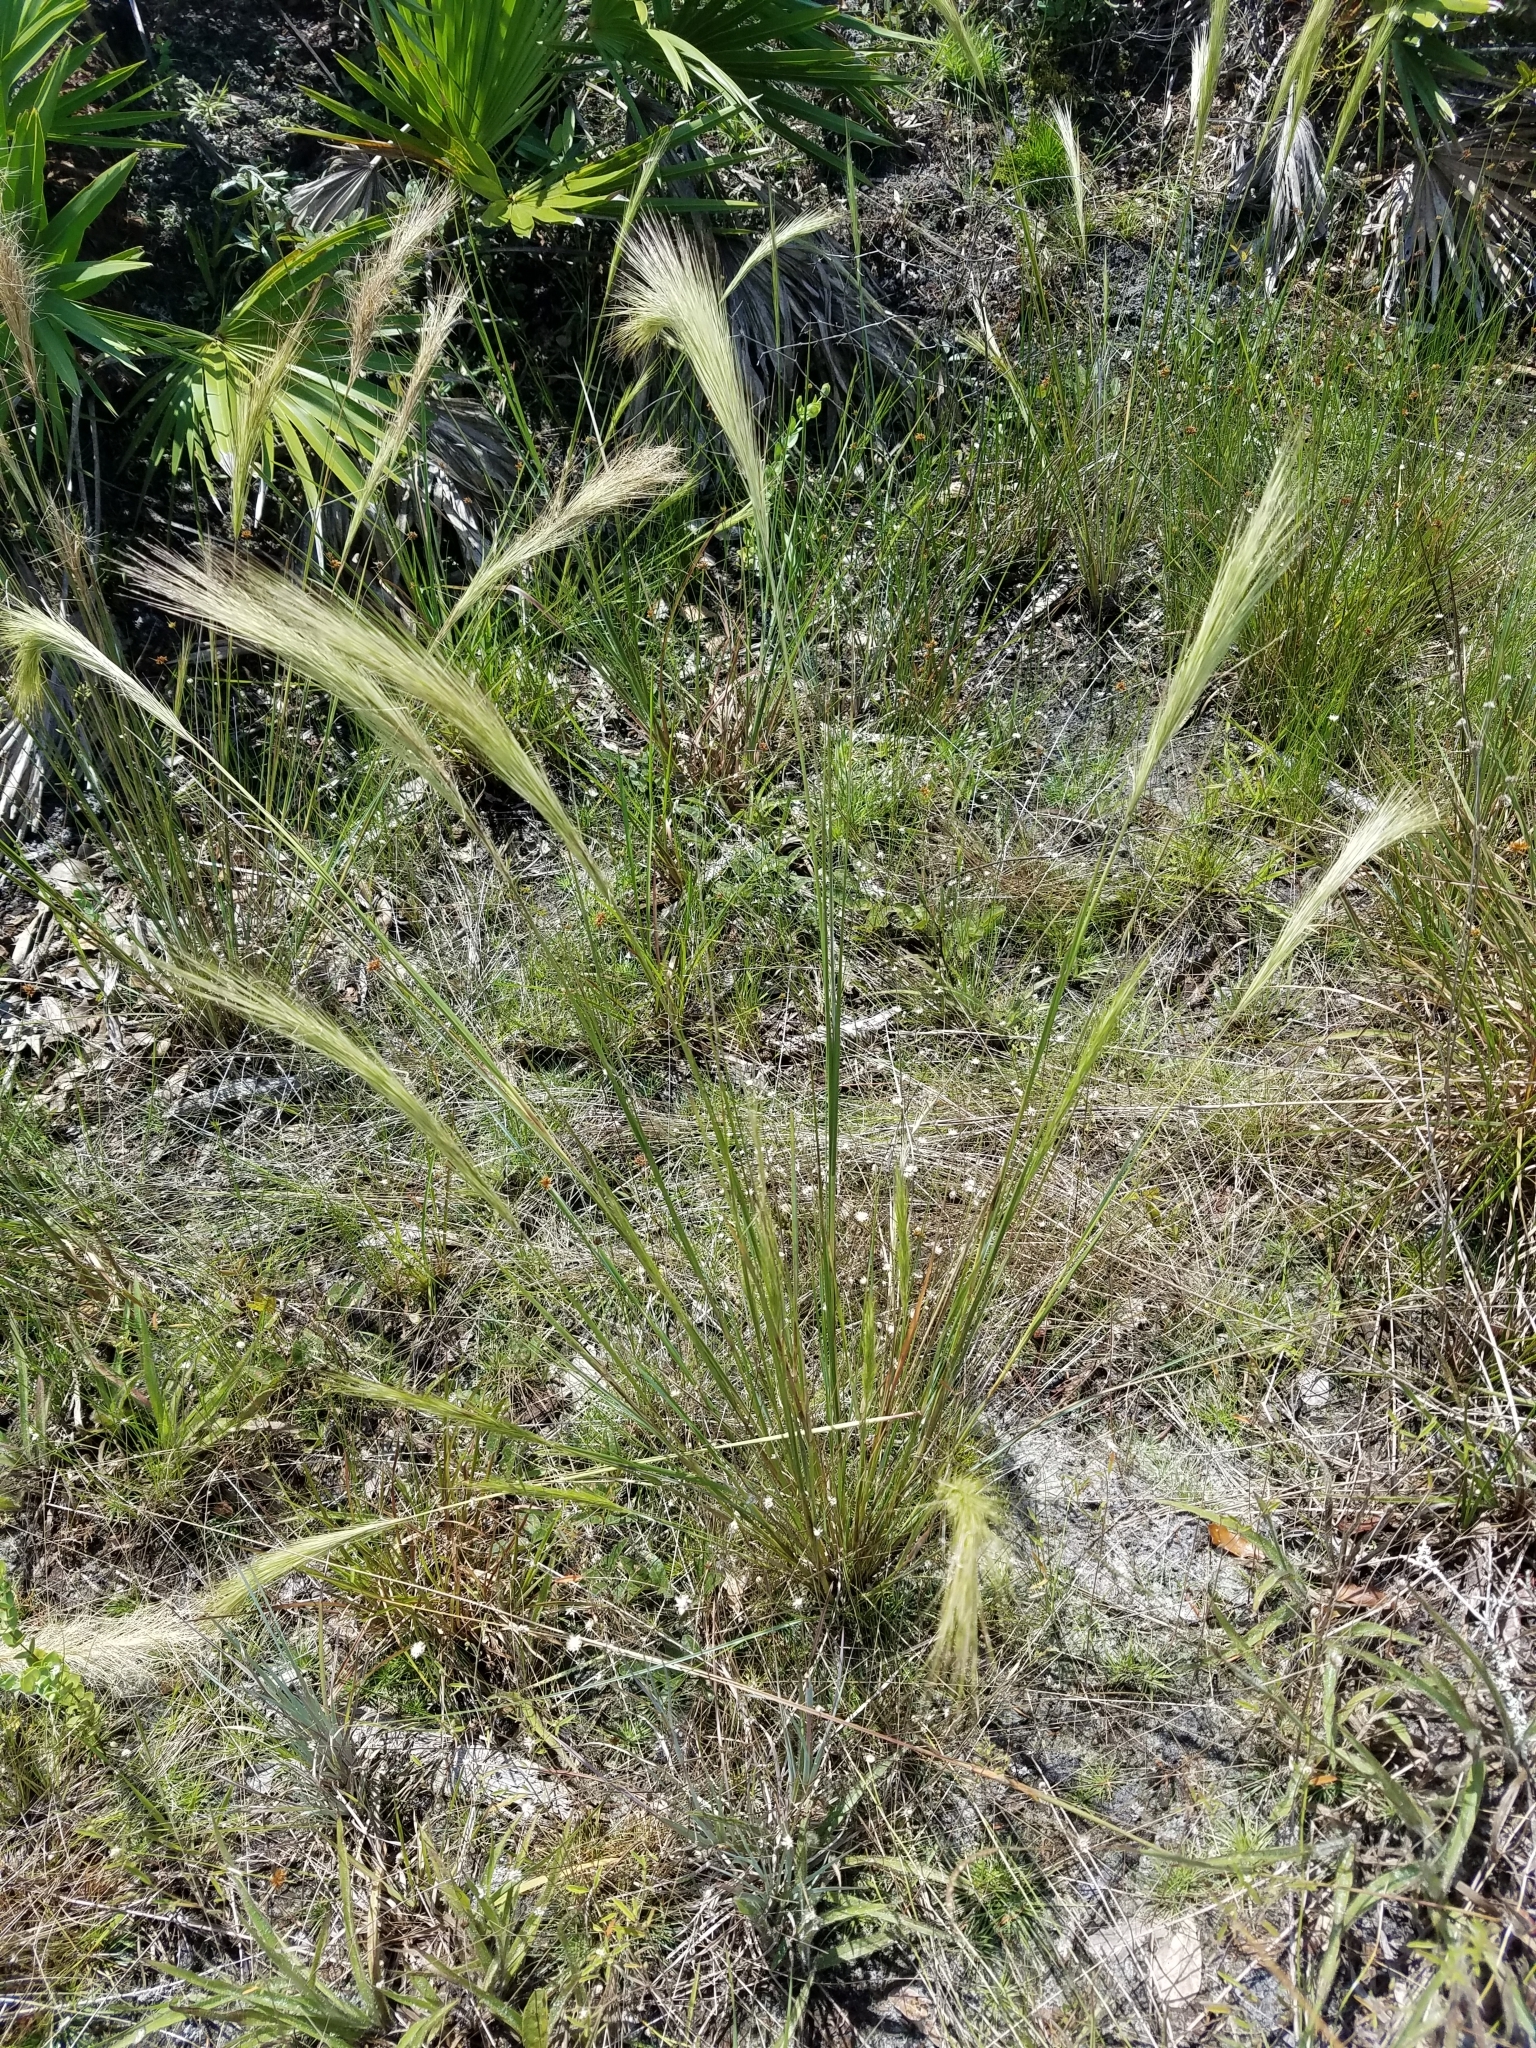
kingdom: Plantae
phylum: Tracheophyta
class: Liliopsida
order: Poales
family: Poaceae
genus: Aristida
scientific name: Aristida spiciformis
